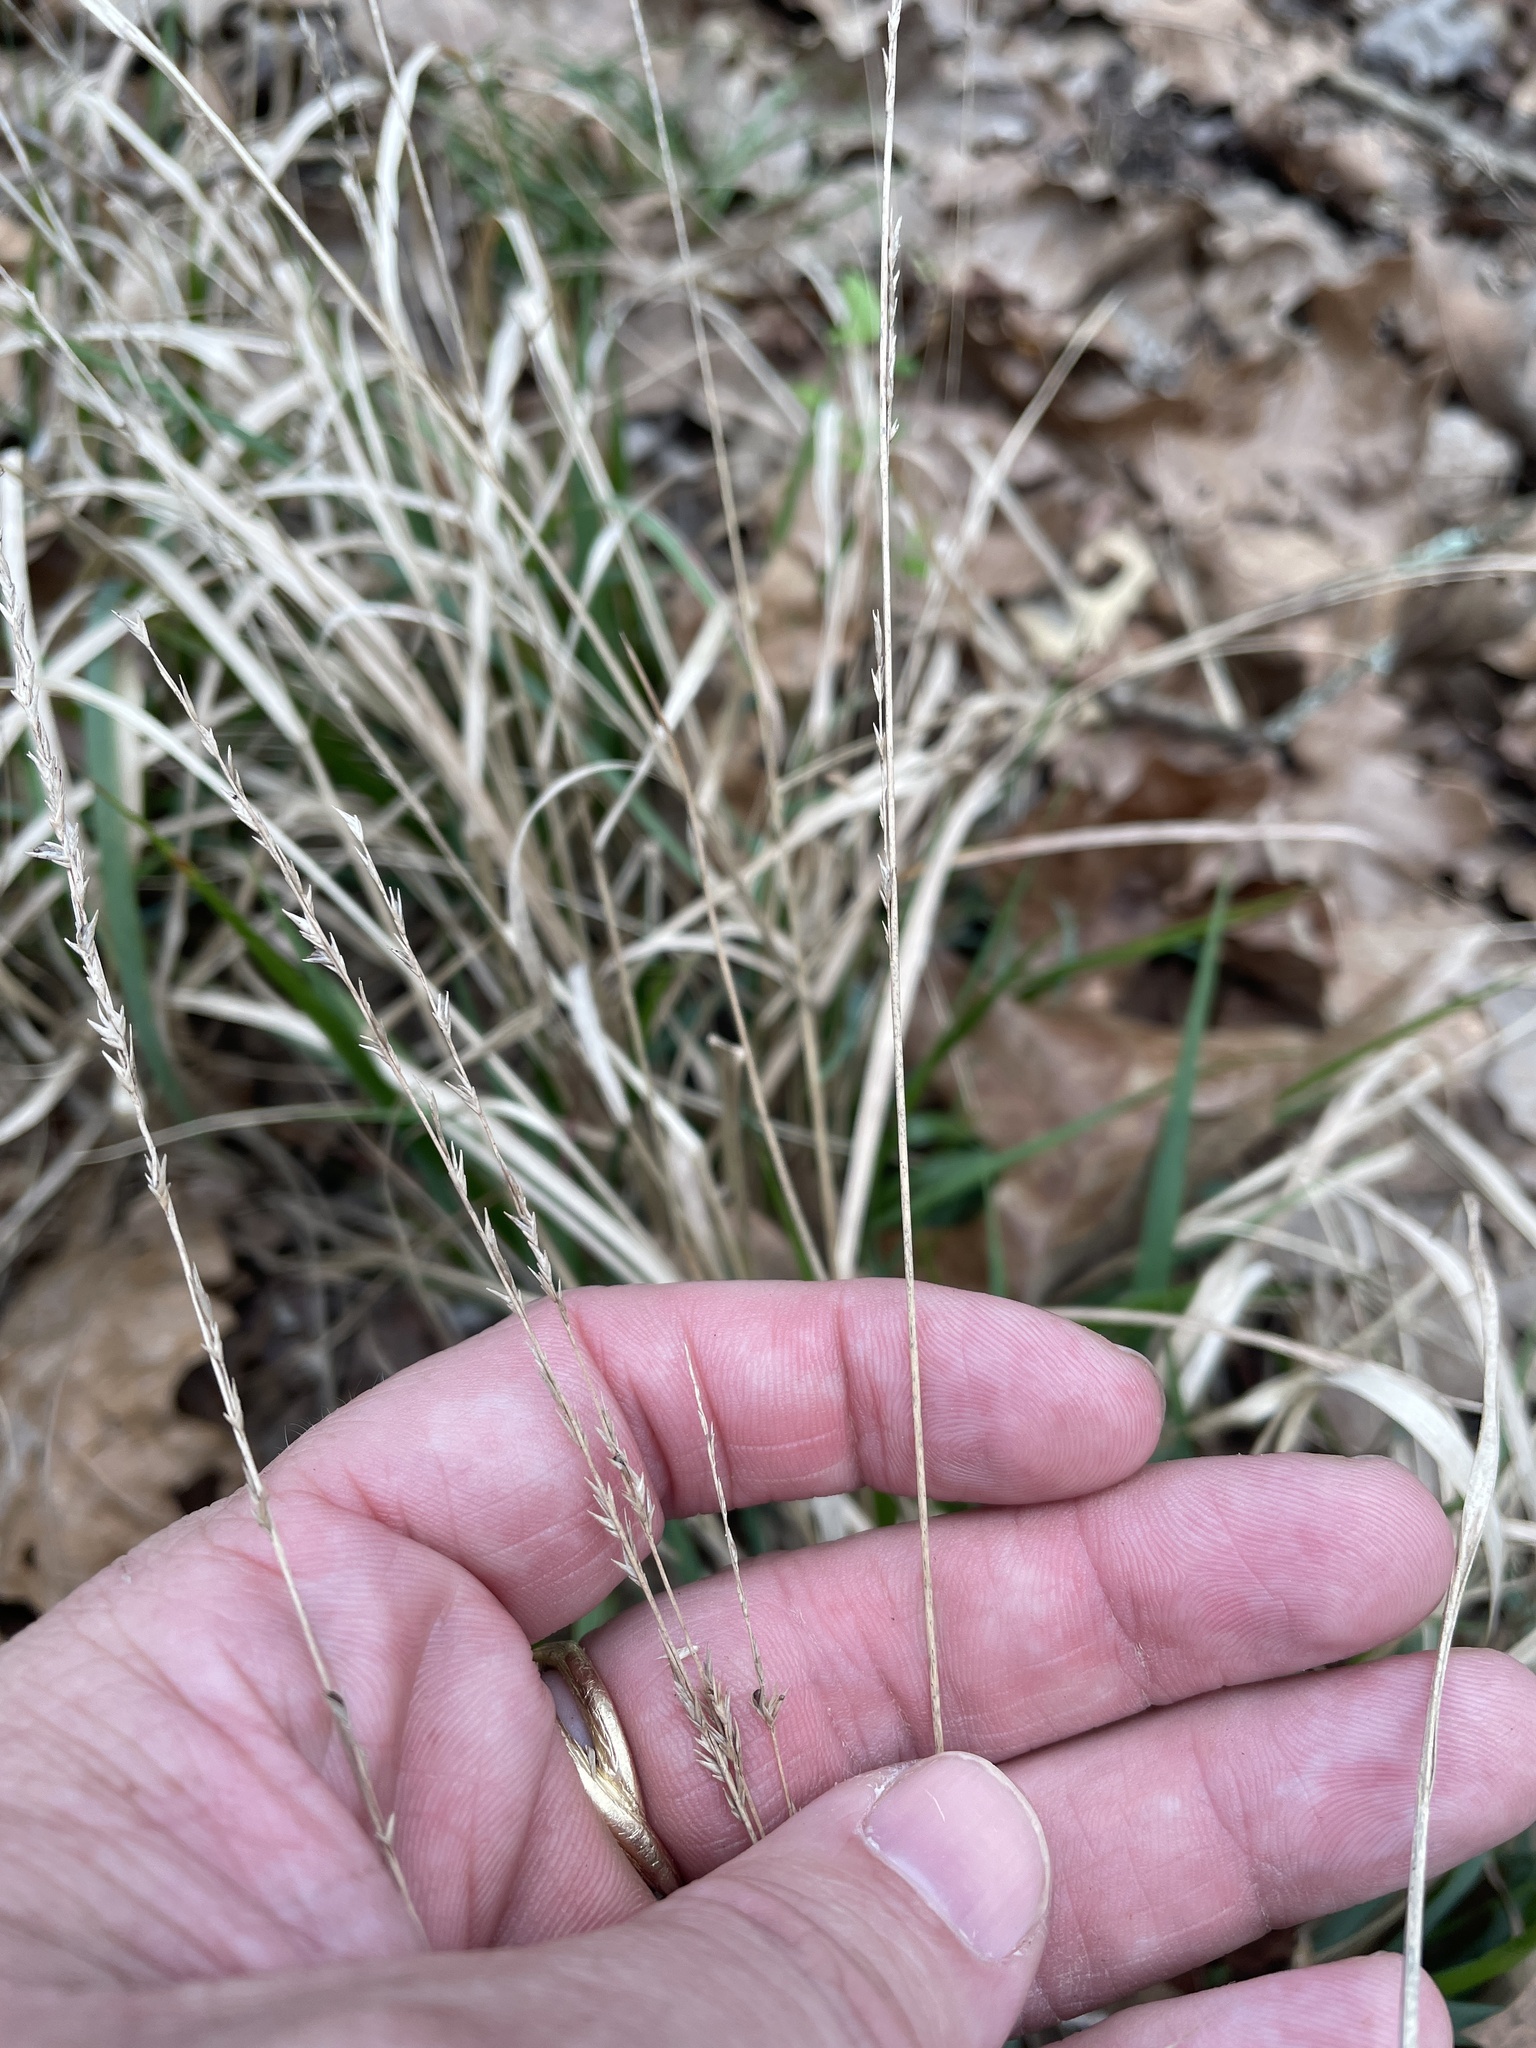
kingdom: Plantae
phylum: Tracheophyta
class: Liliopsida
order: Poales
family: Poaceae
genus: Chasmanthium
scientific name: Chasmanthium laxum
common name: Slender chasmanthium
